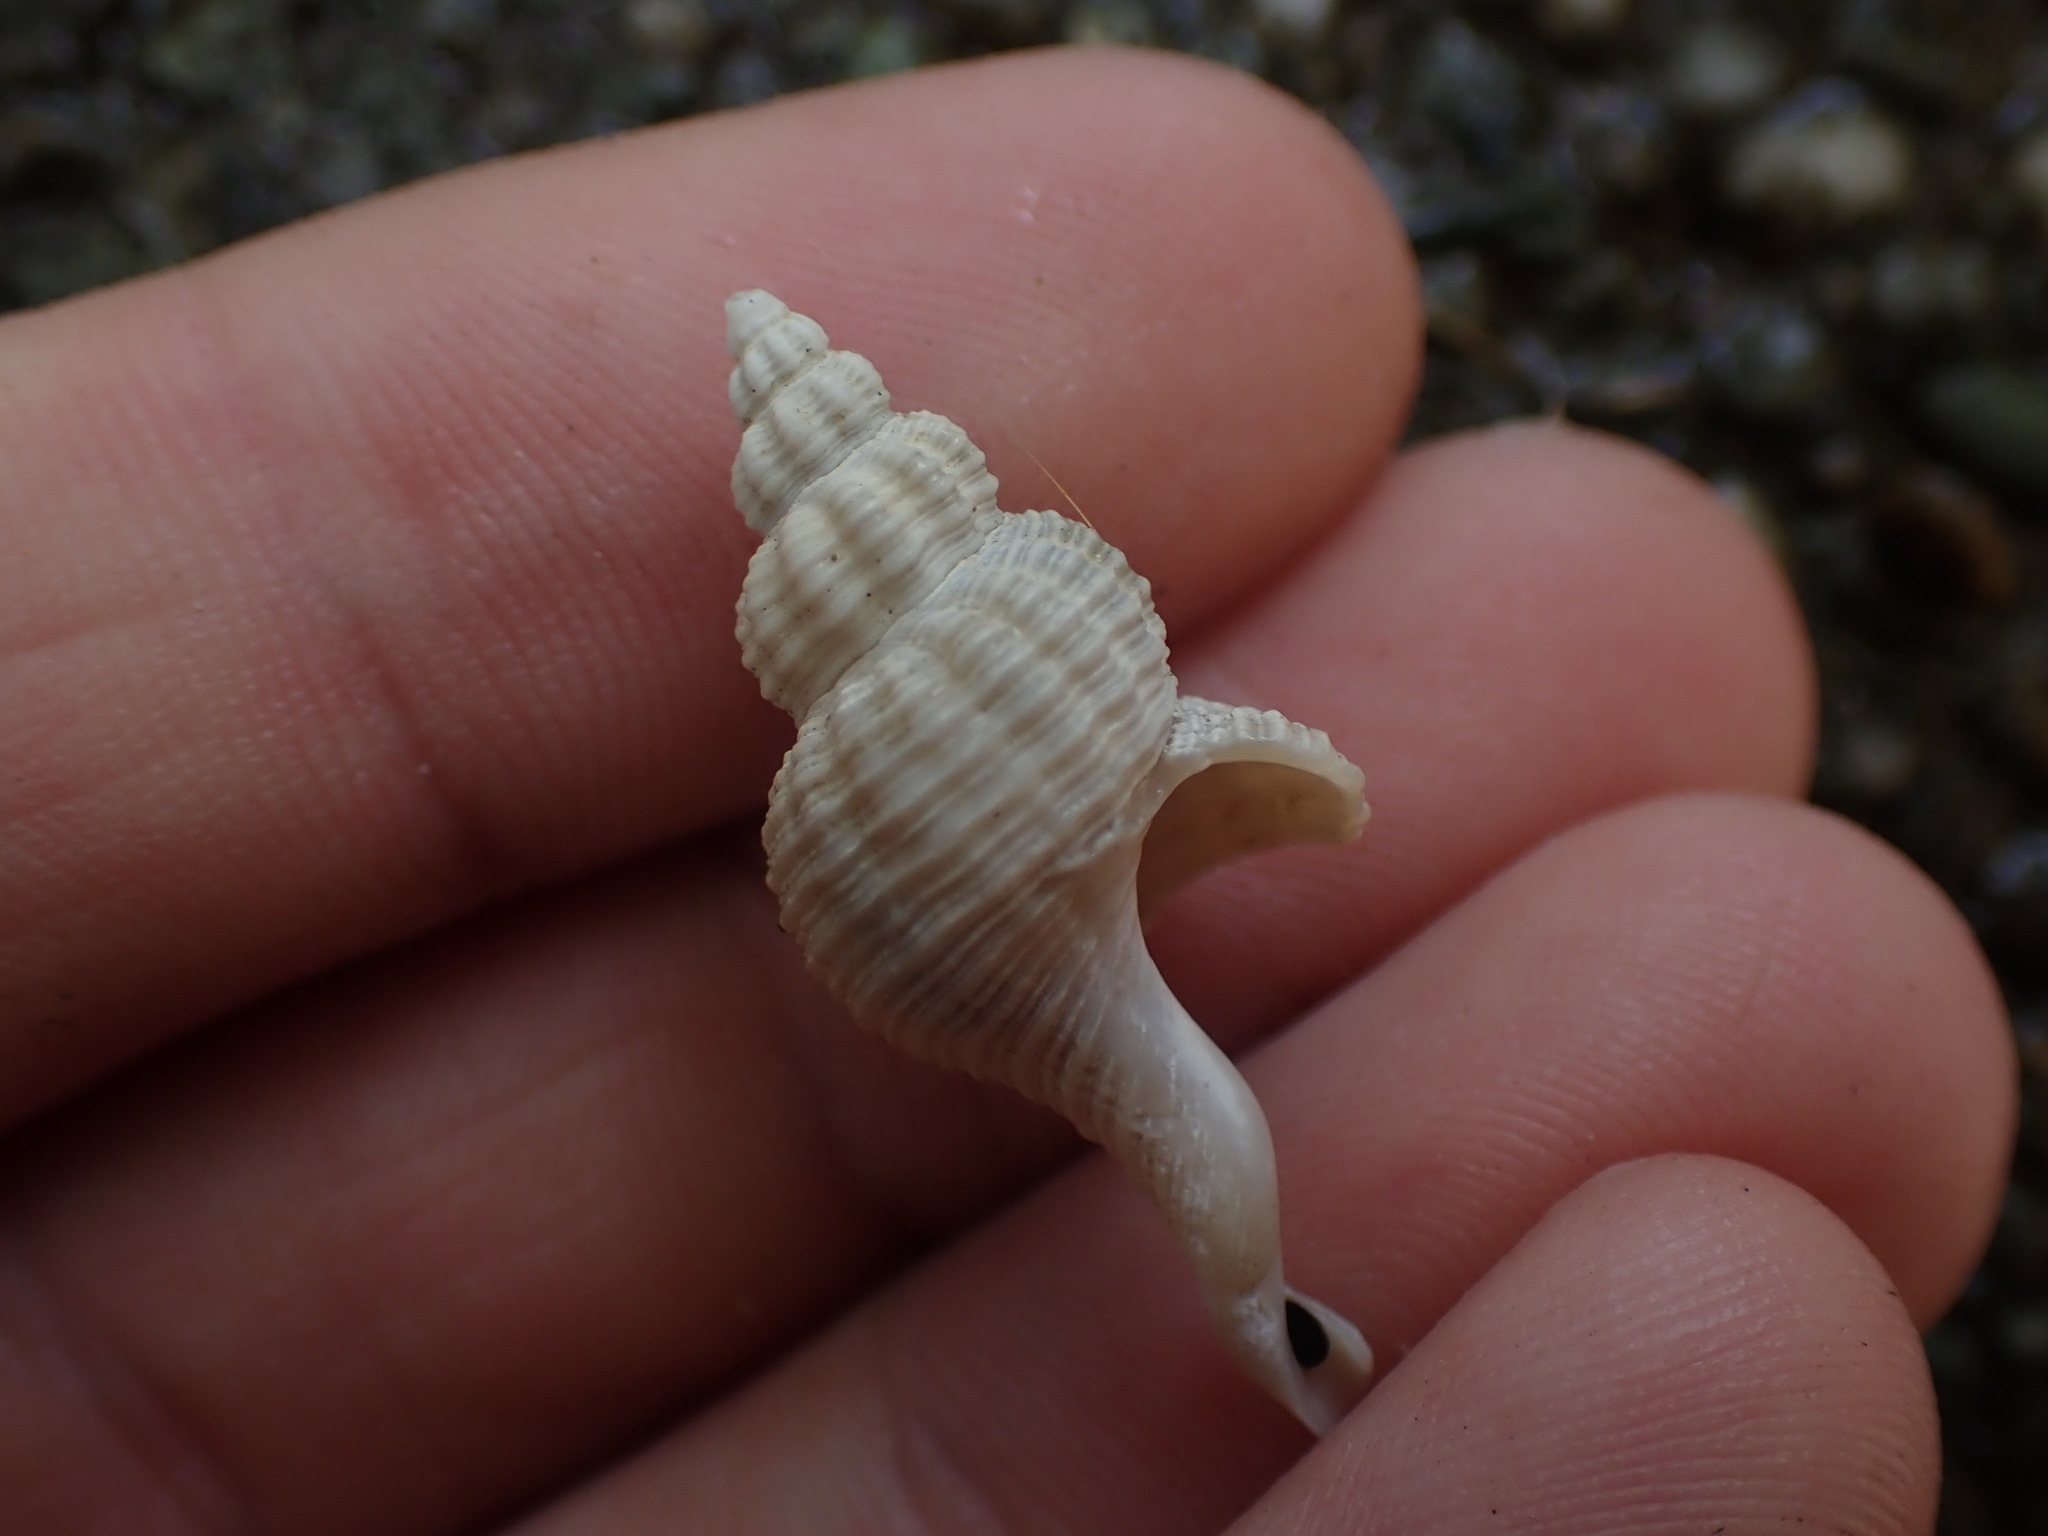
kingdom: Animalia
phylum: Mollusca
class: Gastropoda
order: Neogastropoda
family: Fasciolariidae
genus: Glaphyrina
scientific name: Glaphyrina caudata
